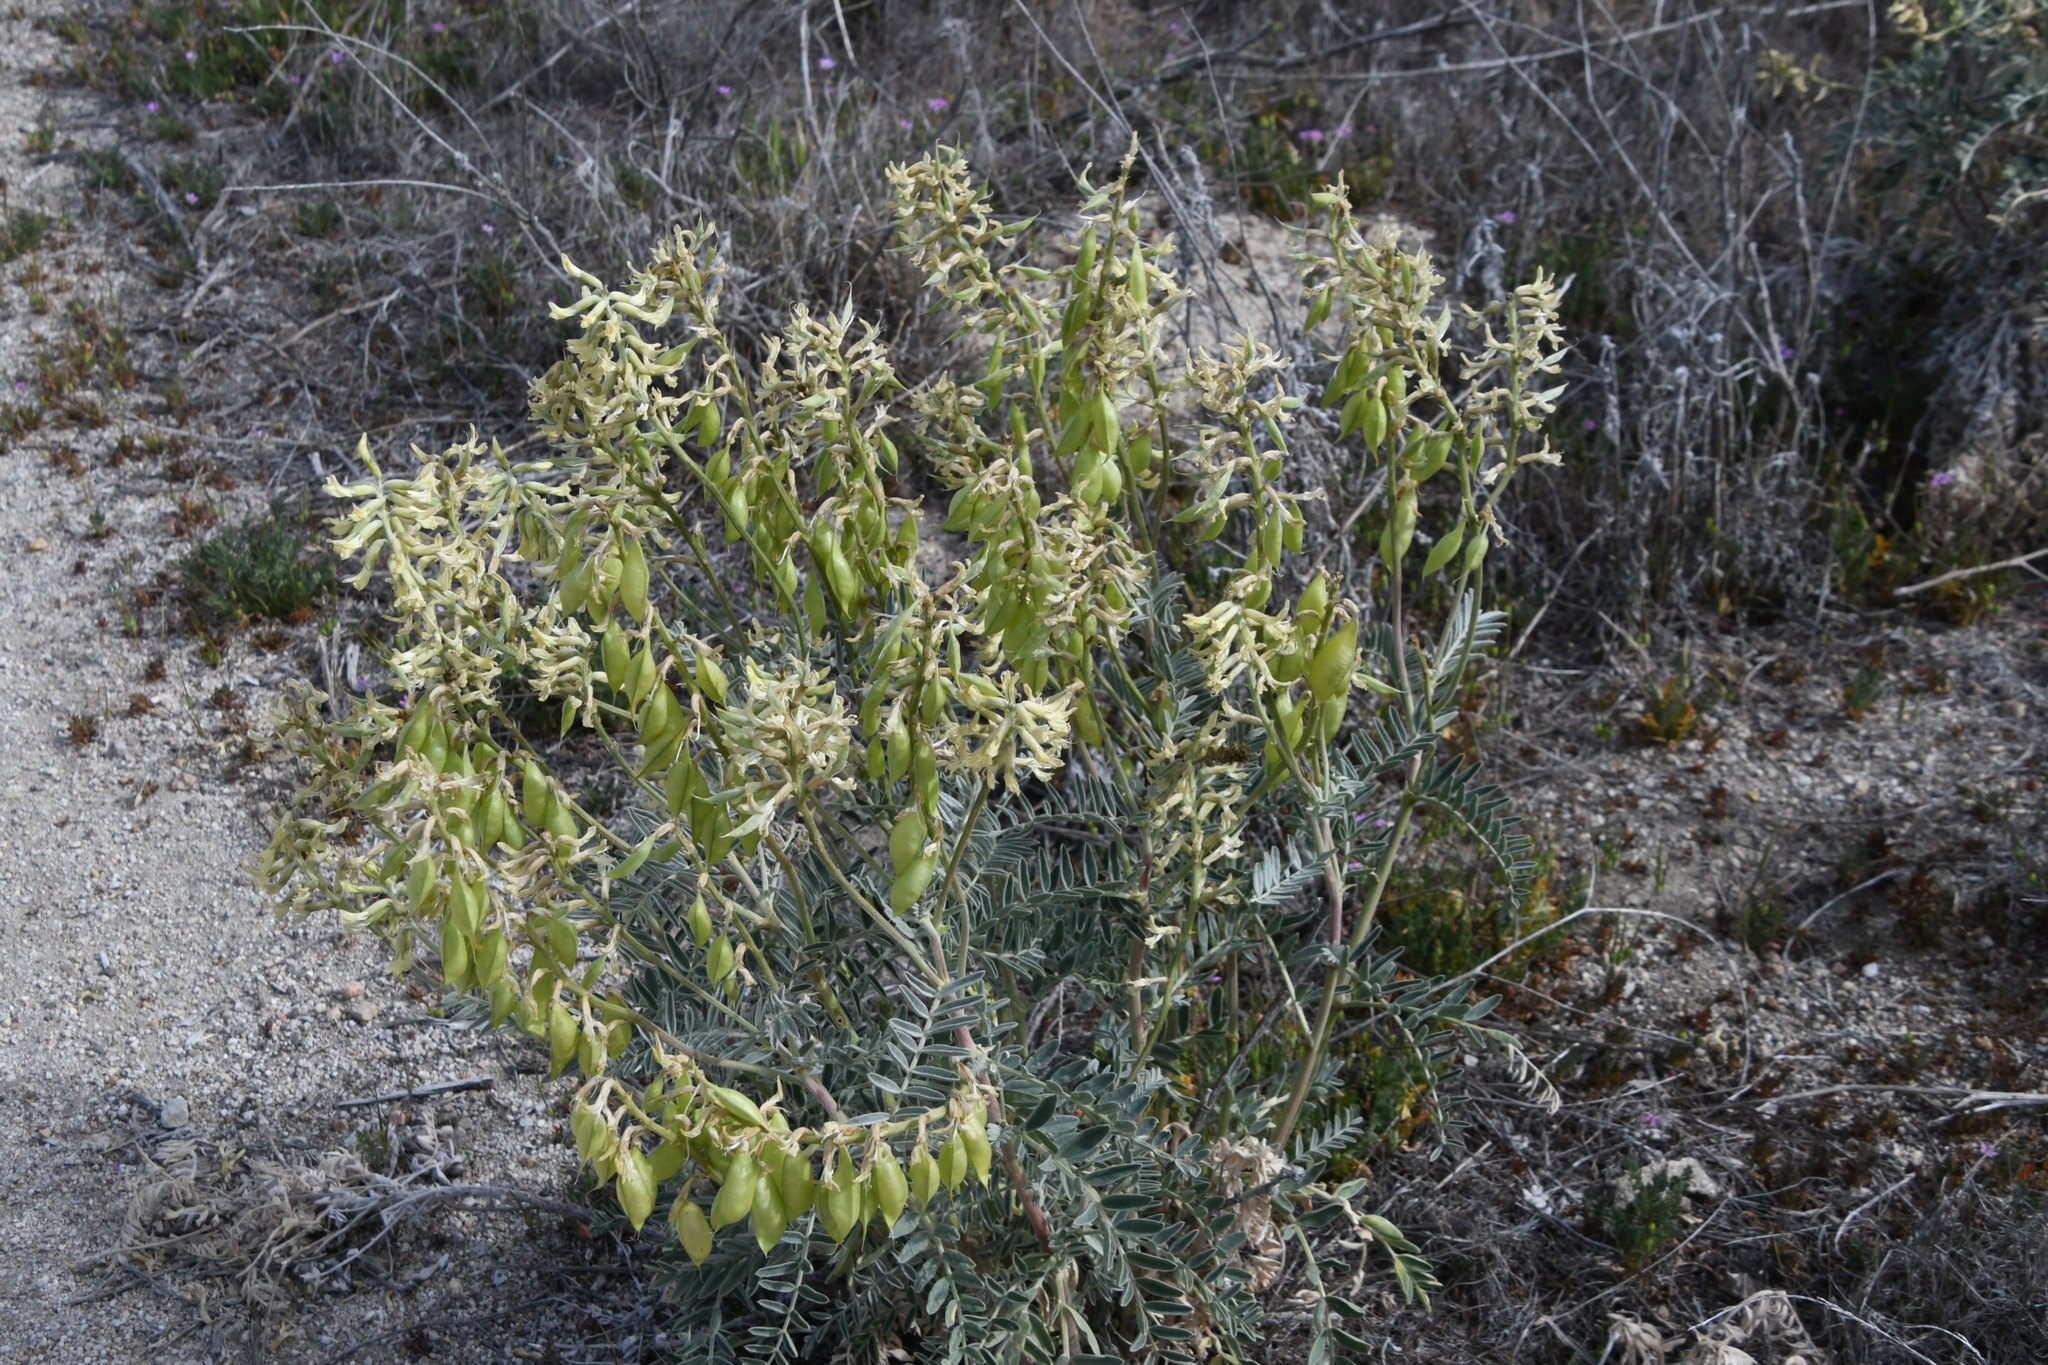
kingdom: Plantae
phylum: Tracheophyta
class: Magnoliopsida
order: Fabales
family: Fabaceae
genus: Astragalus
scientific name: Astragalus oxyphysus
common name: Stanislaus milk-vetch
